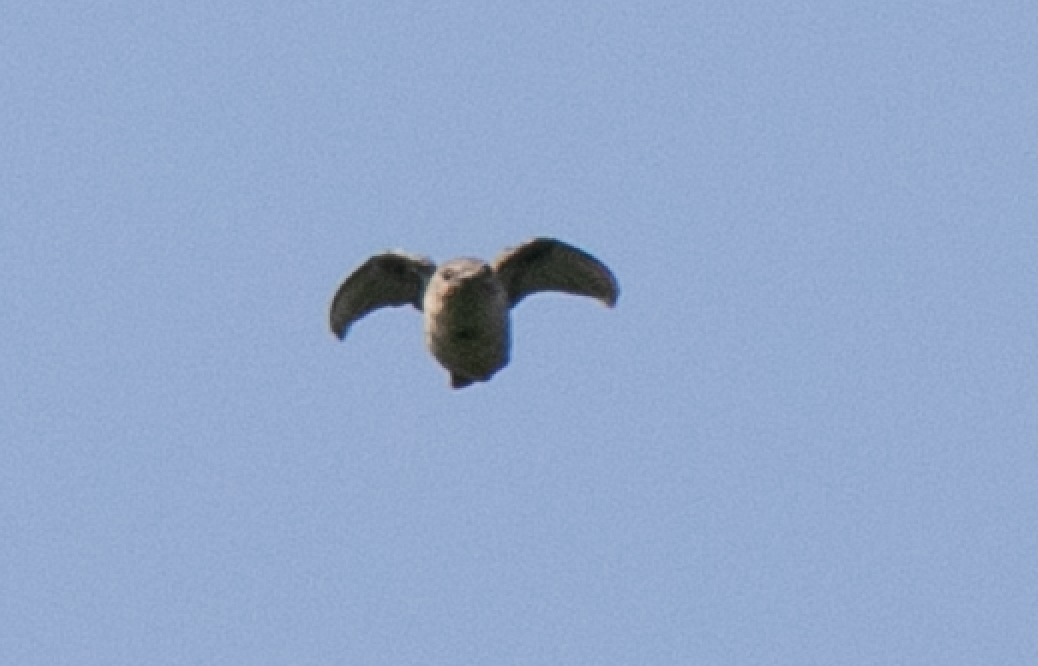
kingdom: Animalia
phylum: Chordata
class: Aves
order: Passeriformes
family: Hirundinidae
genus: Ptyonoprogne
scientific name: Ptyonoprogne rupestris
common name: Eurasian crag martin
